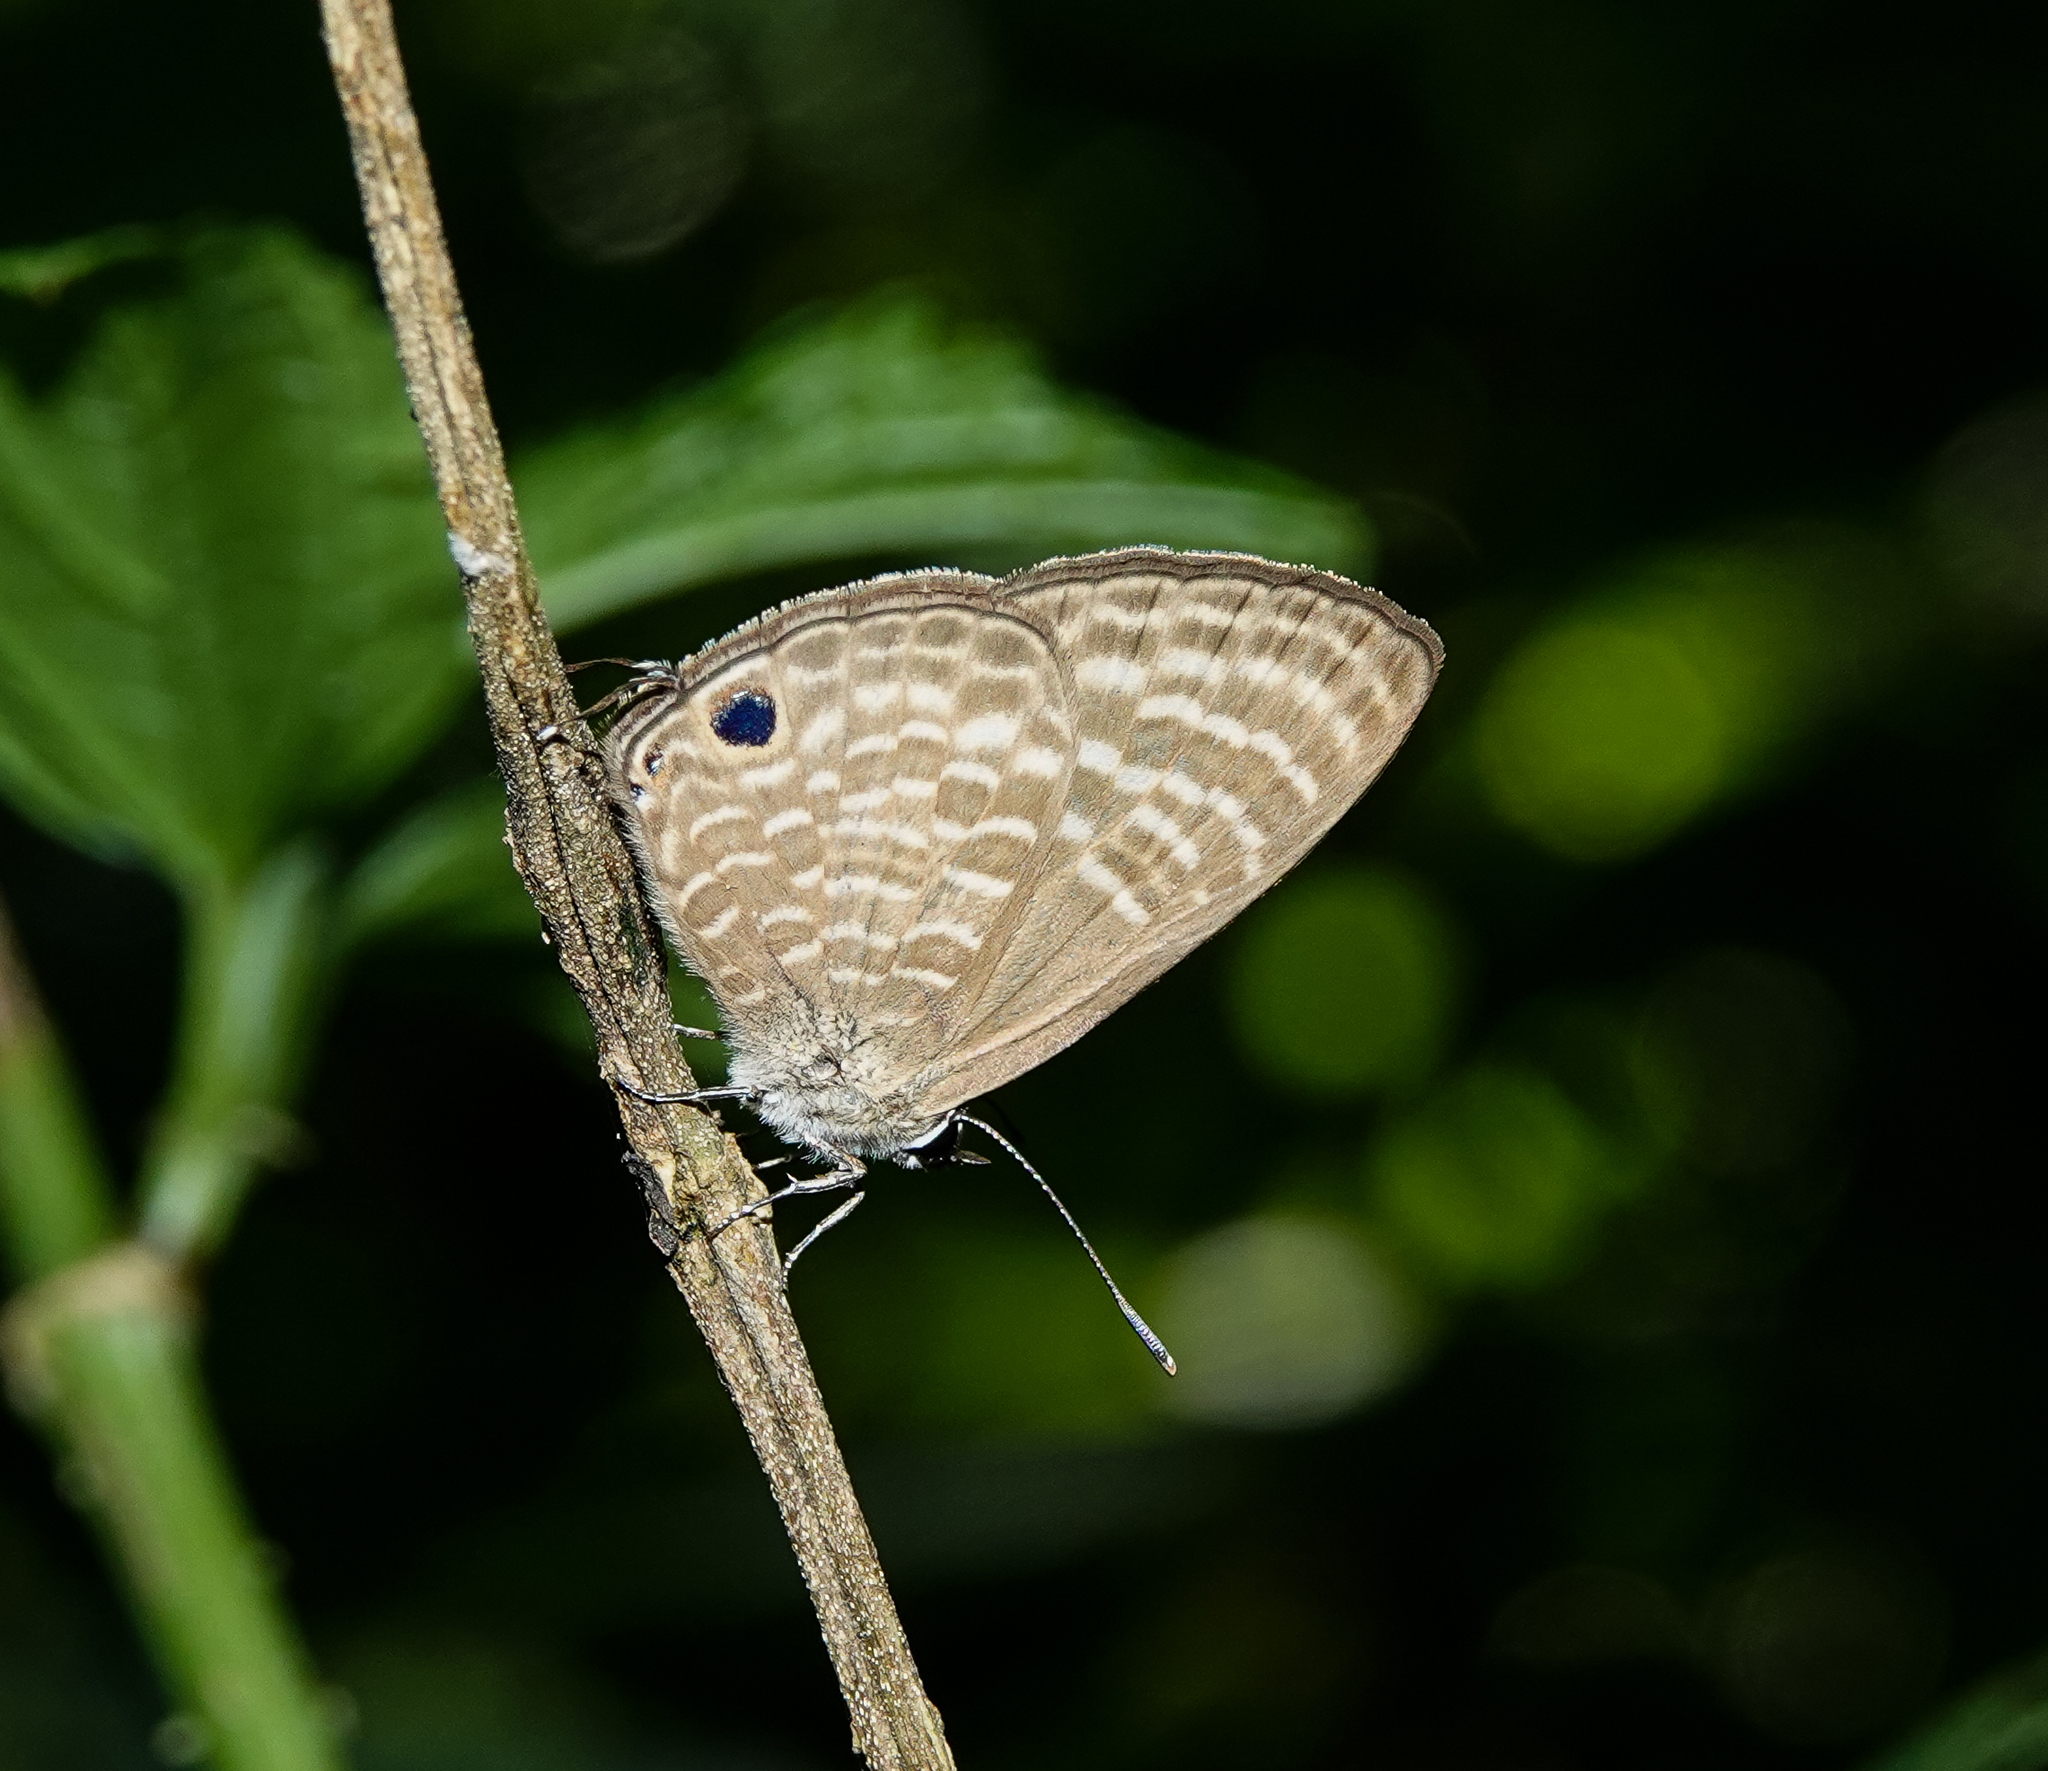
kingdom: Animalia
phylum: Arthropoda
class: Insecta
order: Lepidoptera
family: Lycaenidae
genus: Nacaduba
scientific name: Nacaduba pactolus
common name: Large fourline blue
